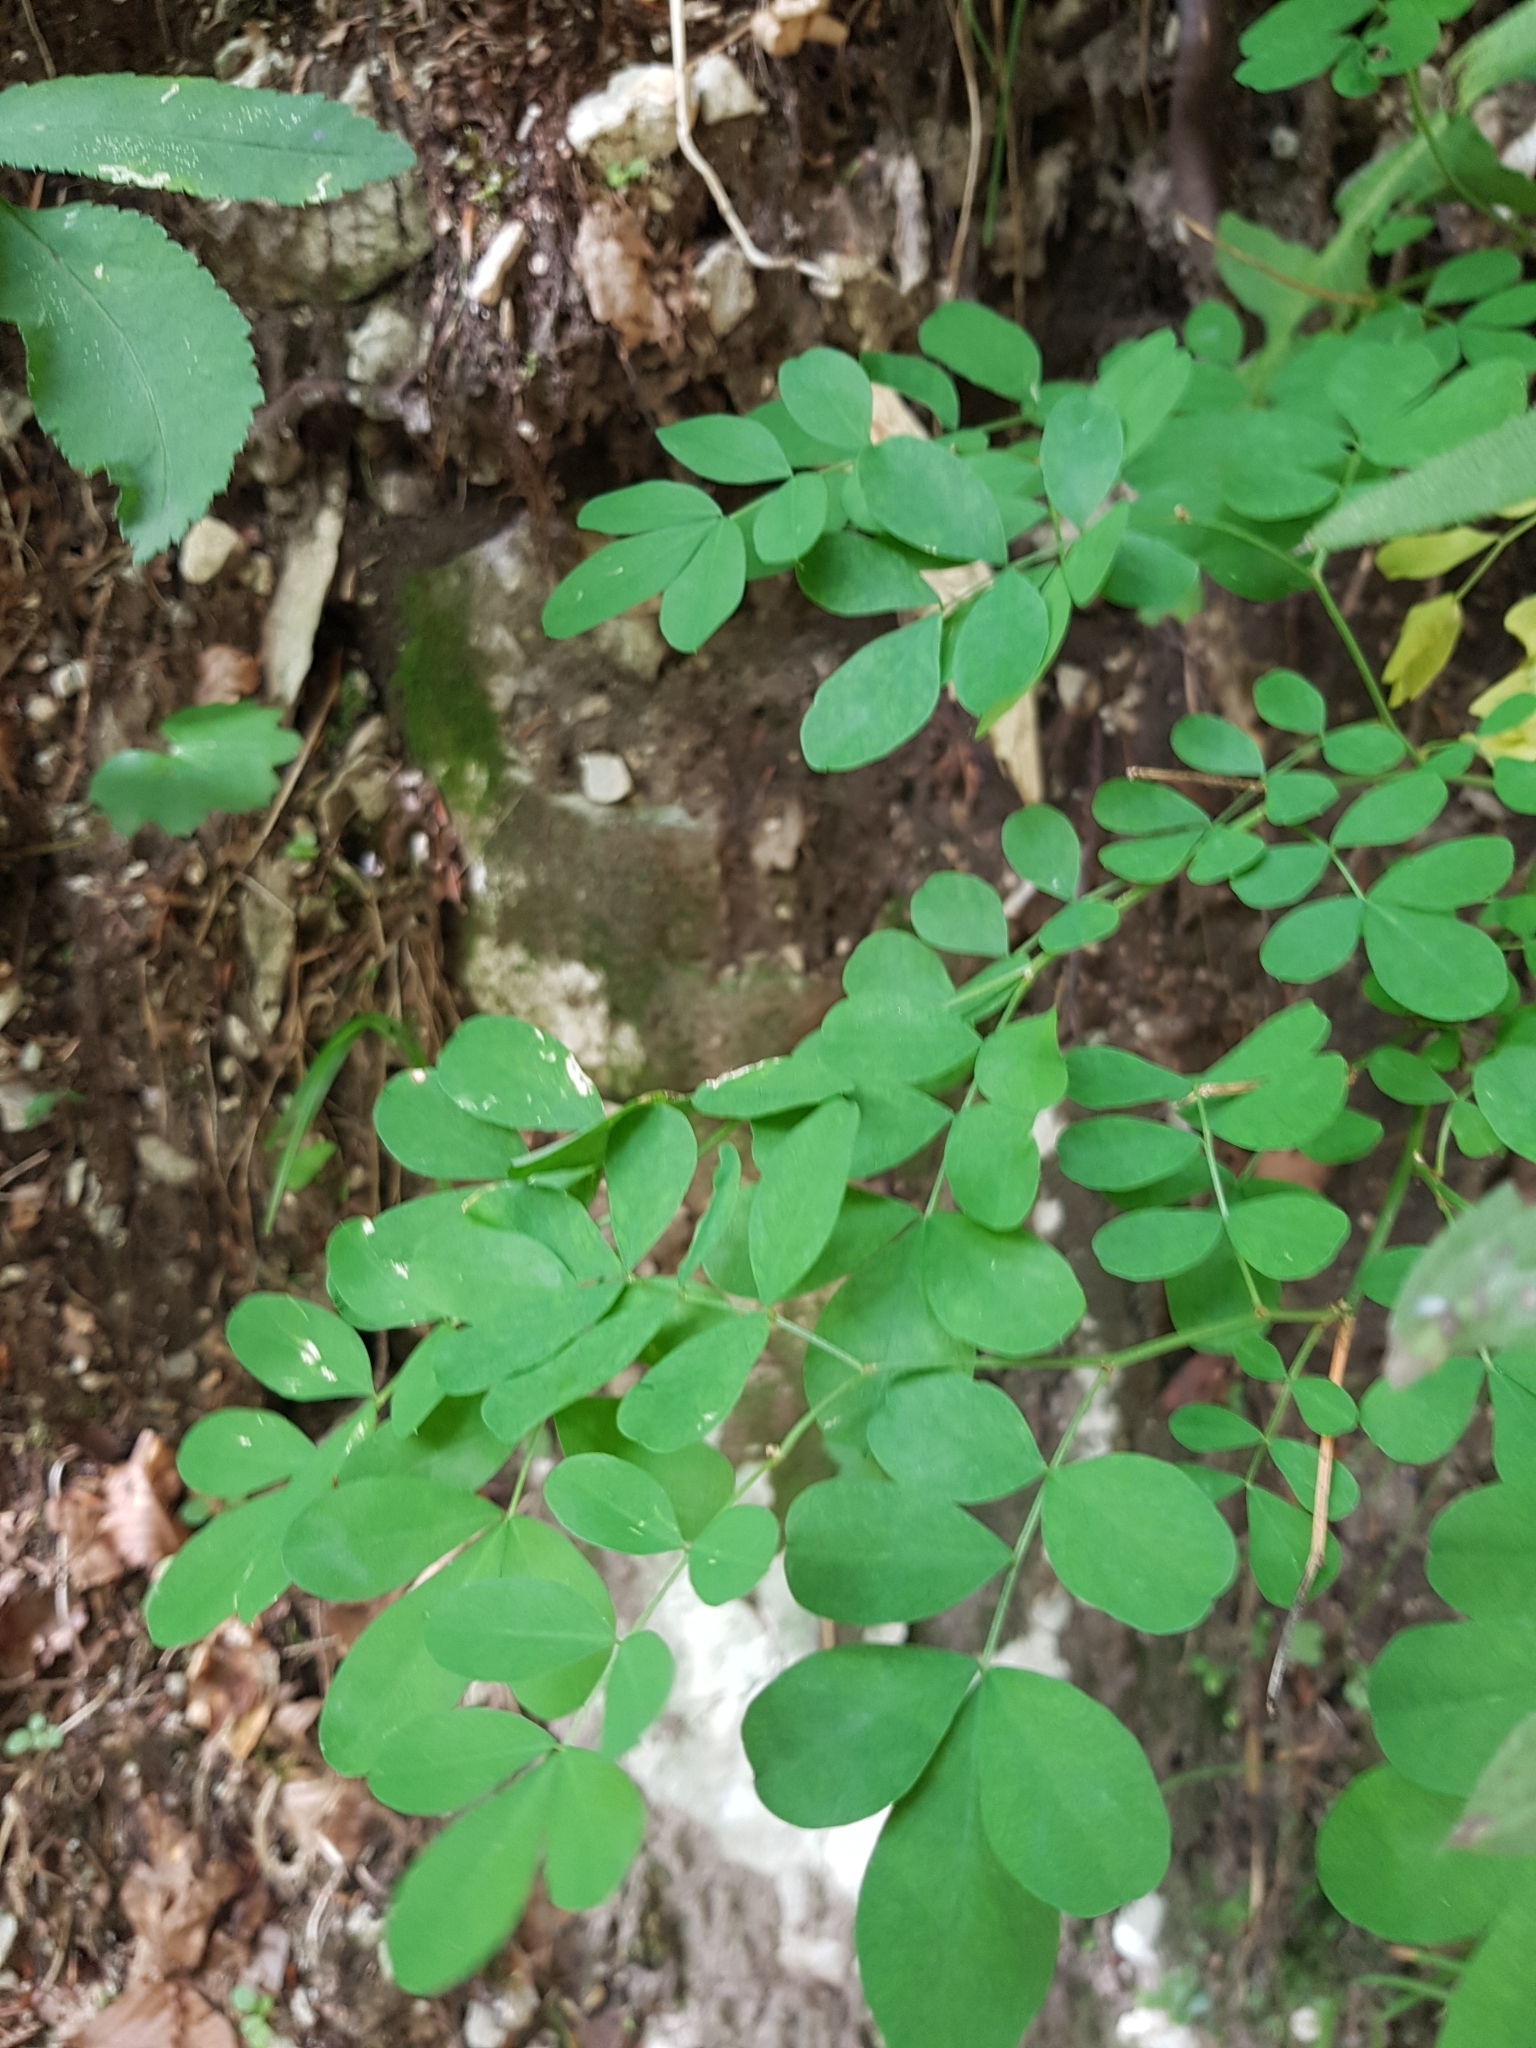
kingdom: Plantae
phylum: Tracheophyta
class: Magnoliopsida
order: Fabales
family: Fabaceae
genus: Hippocrepis
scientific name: Hippocrepis emerus
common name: Scorpion senna
